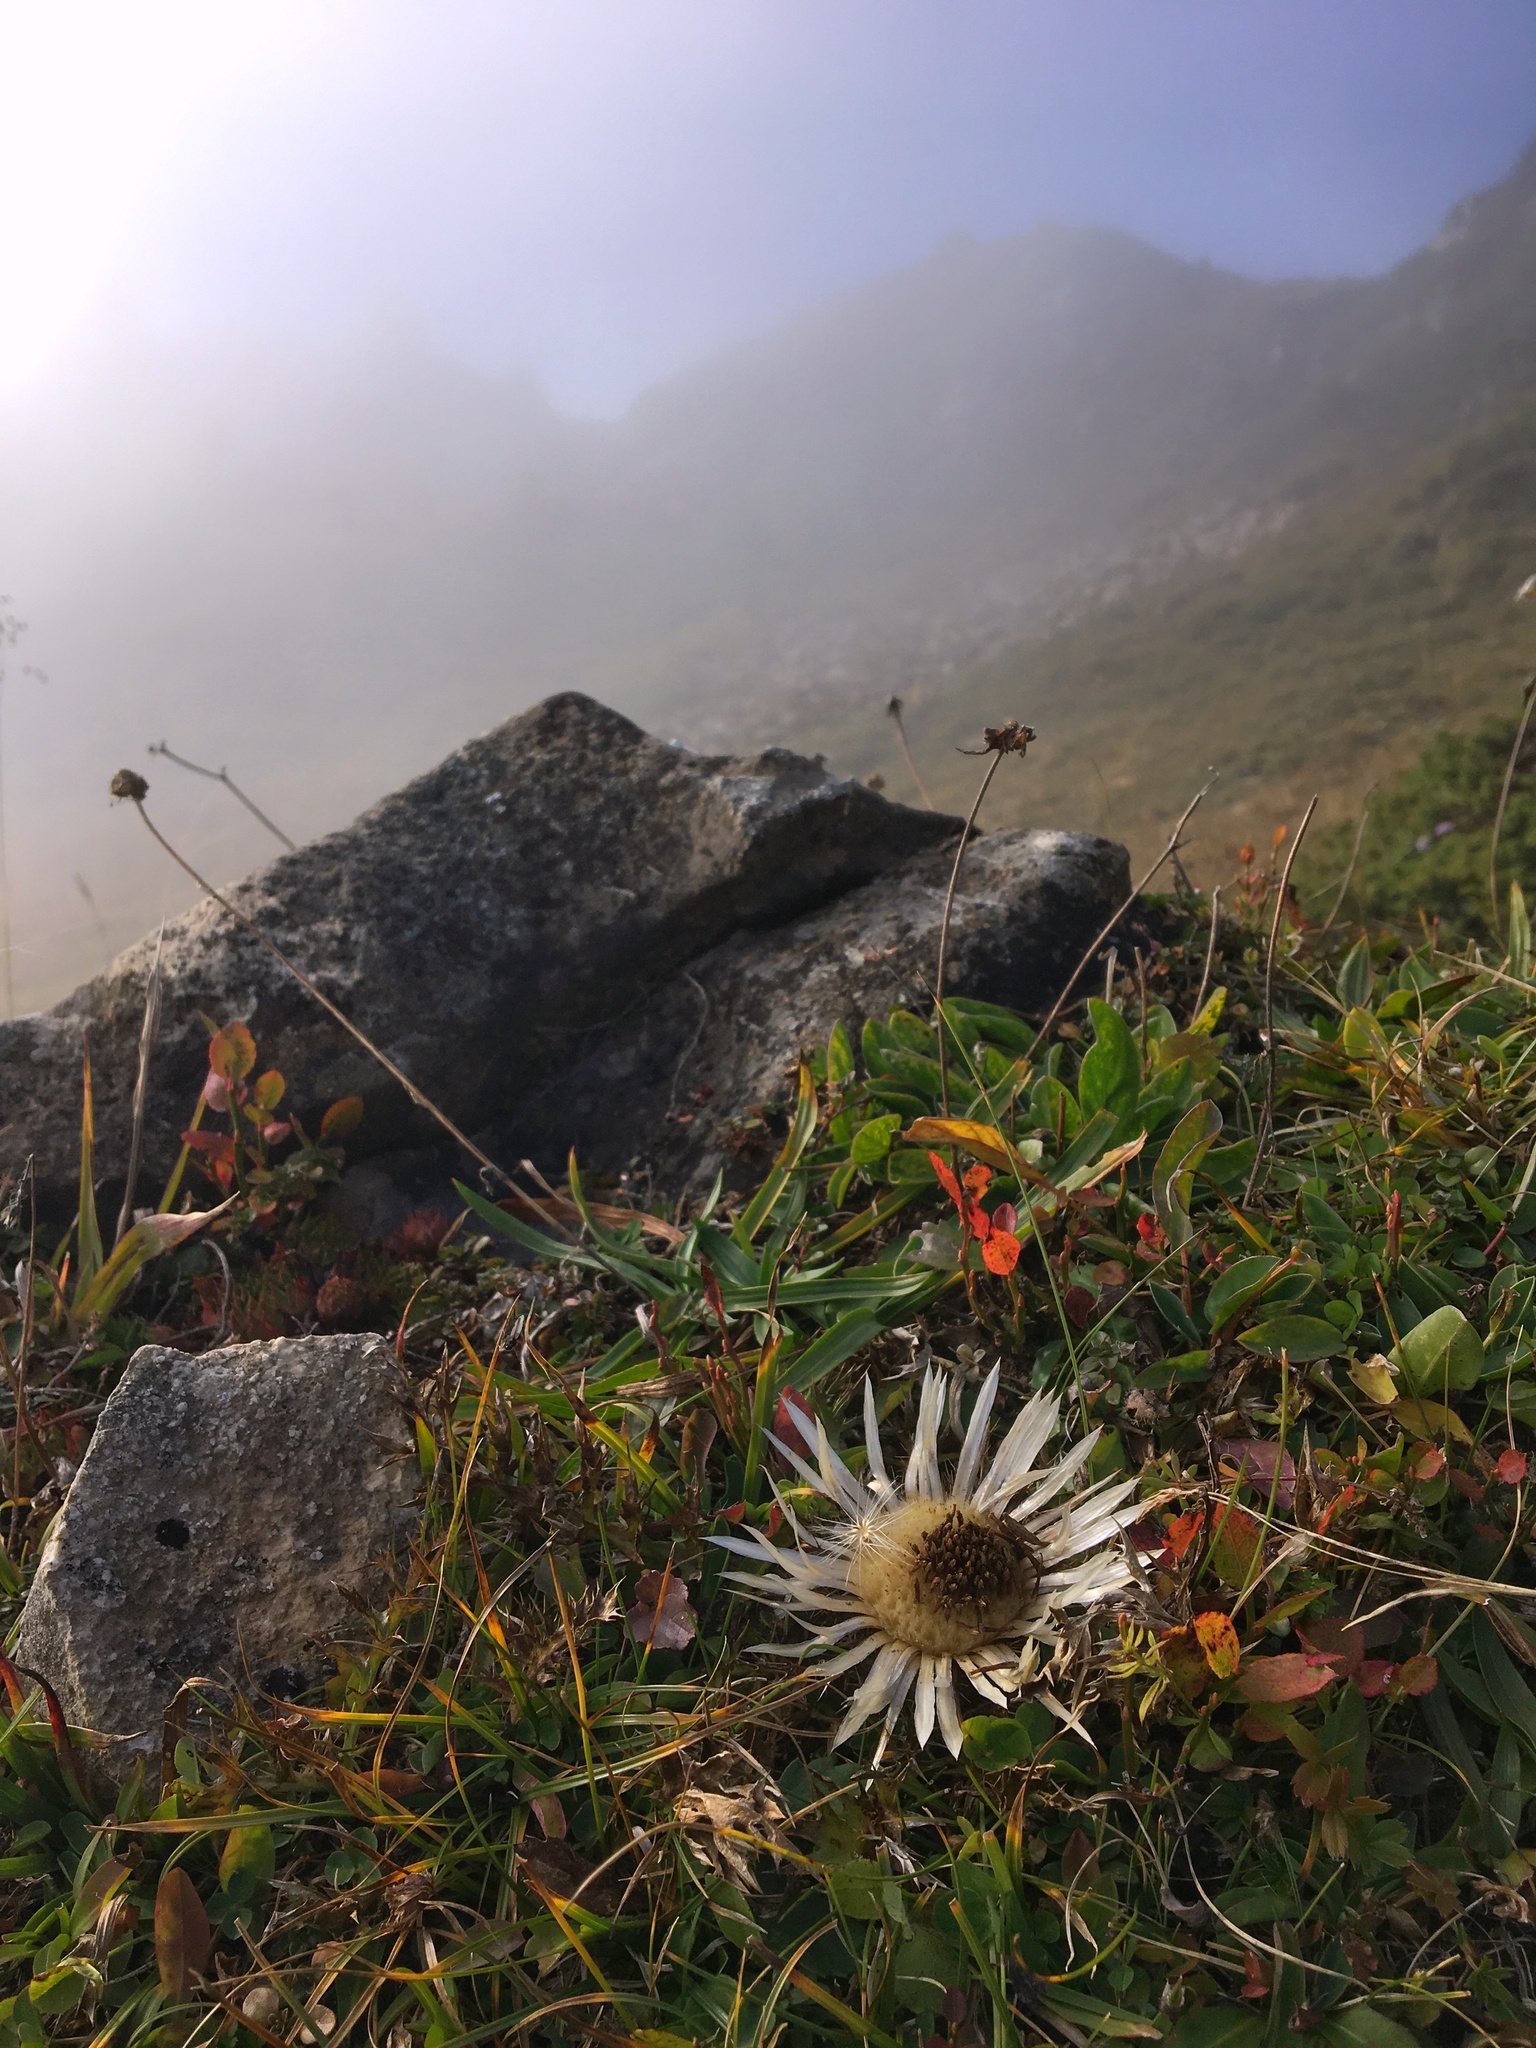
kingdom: Plantae
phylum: Tracheophyta
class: Magnoliopsida
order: Asterales
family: Asteraceae
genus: Carlina
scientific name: Carlina acaulis
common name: Stemless carline thistle
